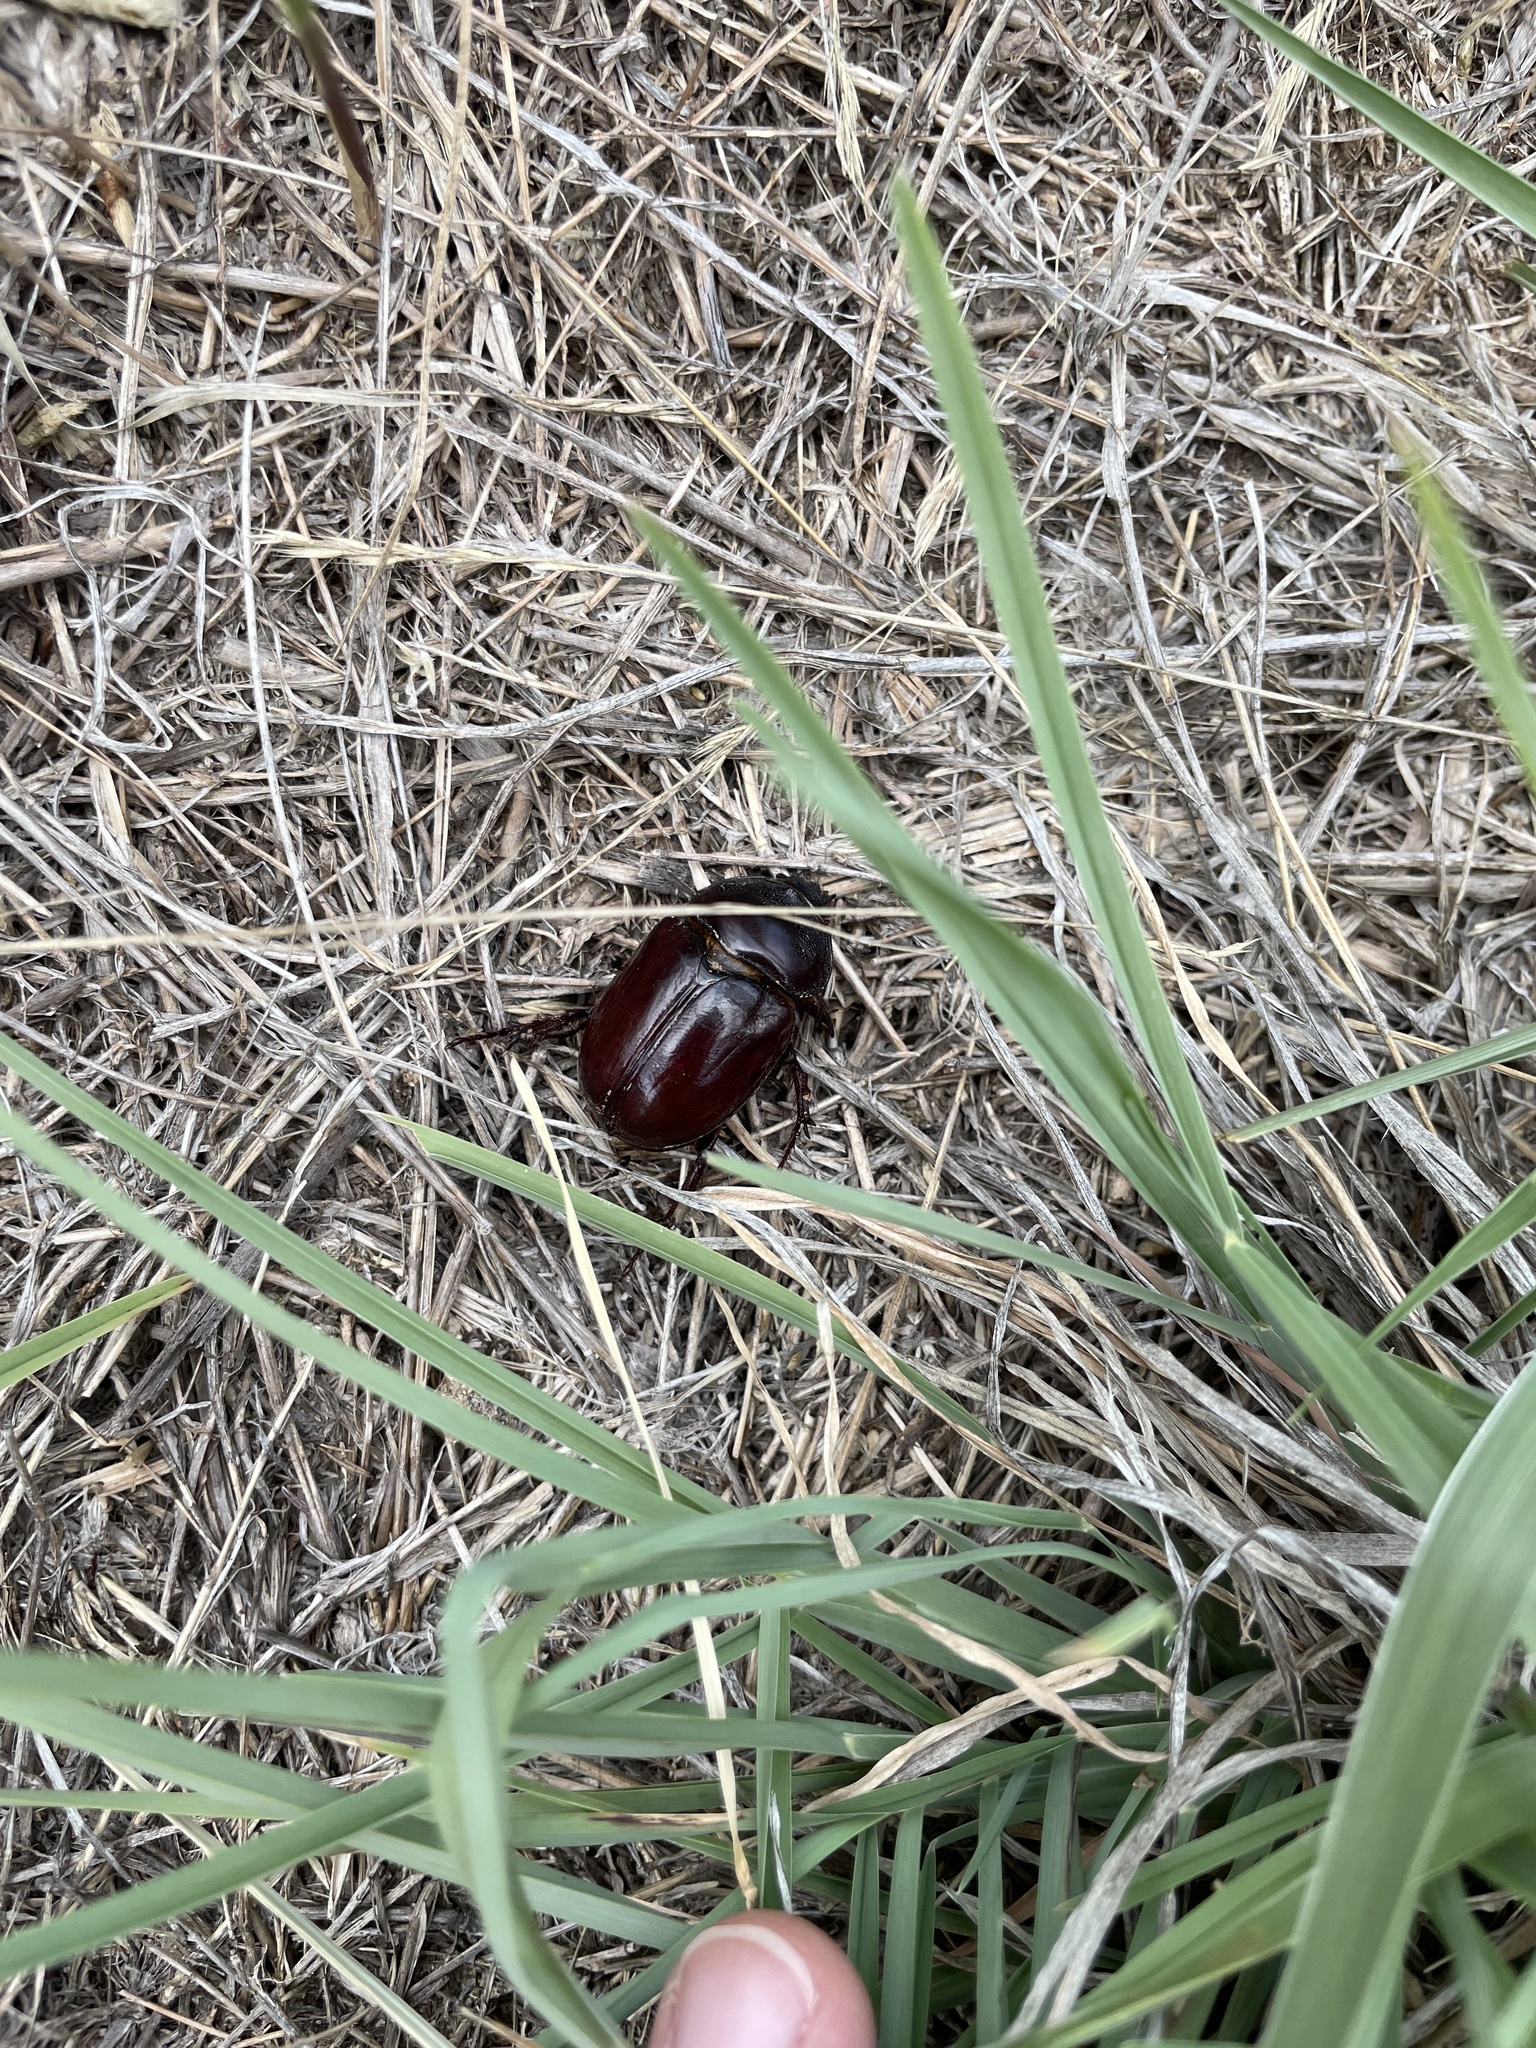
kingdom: Animalia
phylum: Arthropoda
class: Insecta
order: Coleoptera
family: Scarabaeidae
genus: Strategus
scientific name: Strategus mormon
